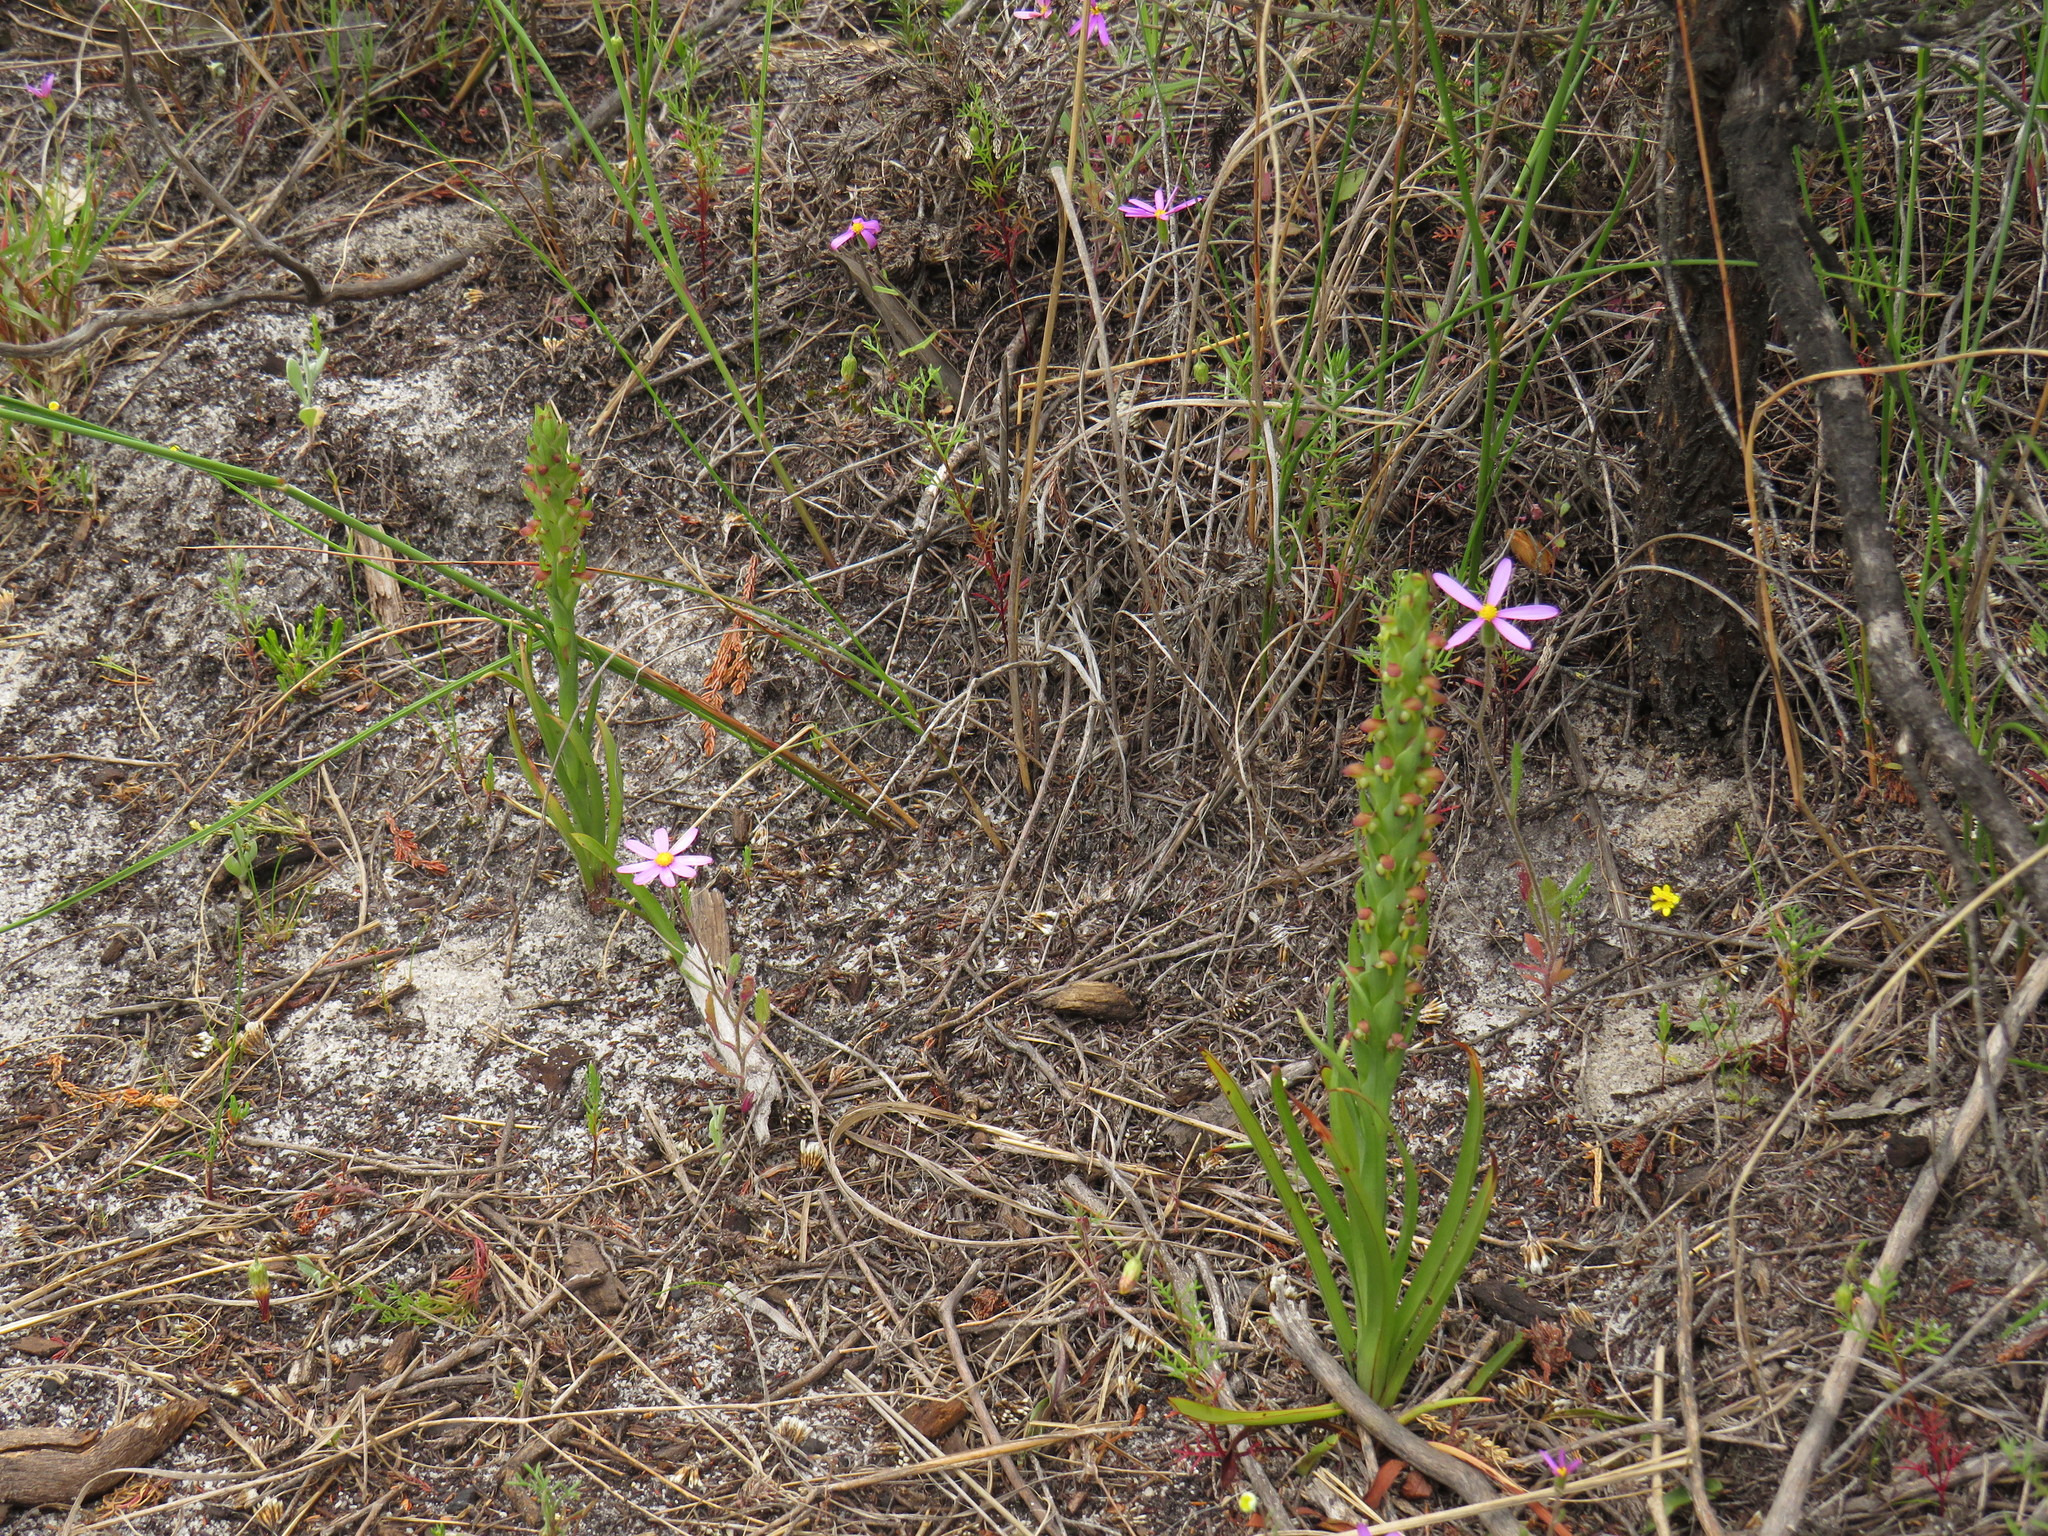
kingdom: Plantae
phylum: Tracheophyta
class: Liliopsida
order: Asparagales
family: Orchidaceae
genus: Disa
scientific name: Disa bracteata
